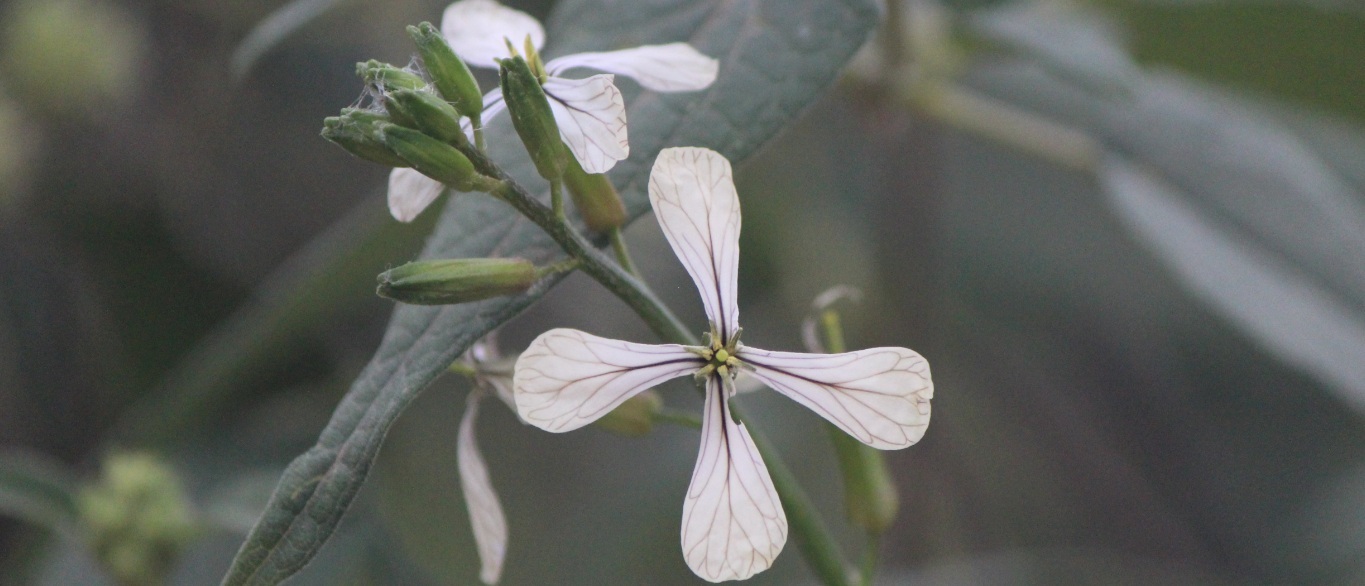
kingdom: Plantae
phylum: Tracheophyta
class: Magnoliopsida
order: Brassicales
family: Brassicaceae
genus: Eruca
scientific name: Eruca vesicaria
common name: Garden rocket
